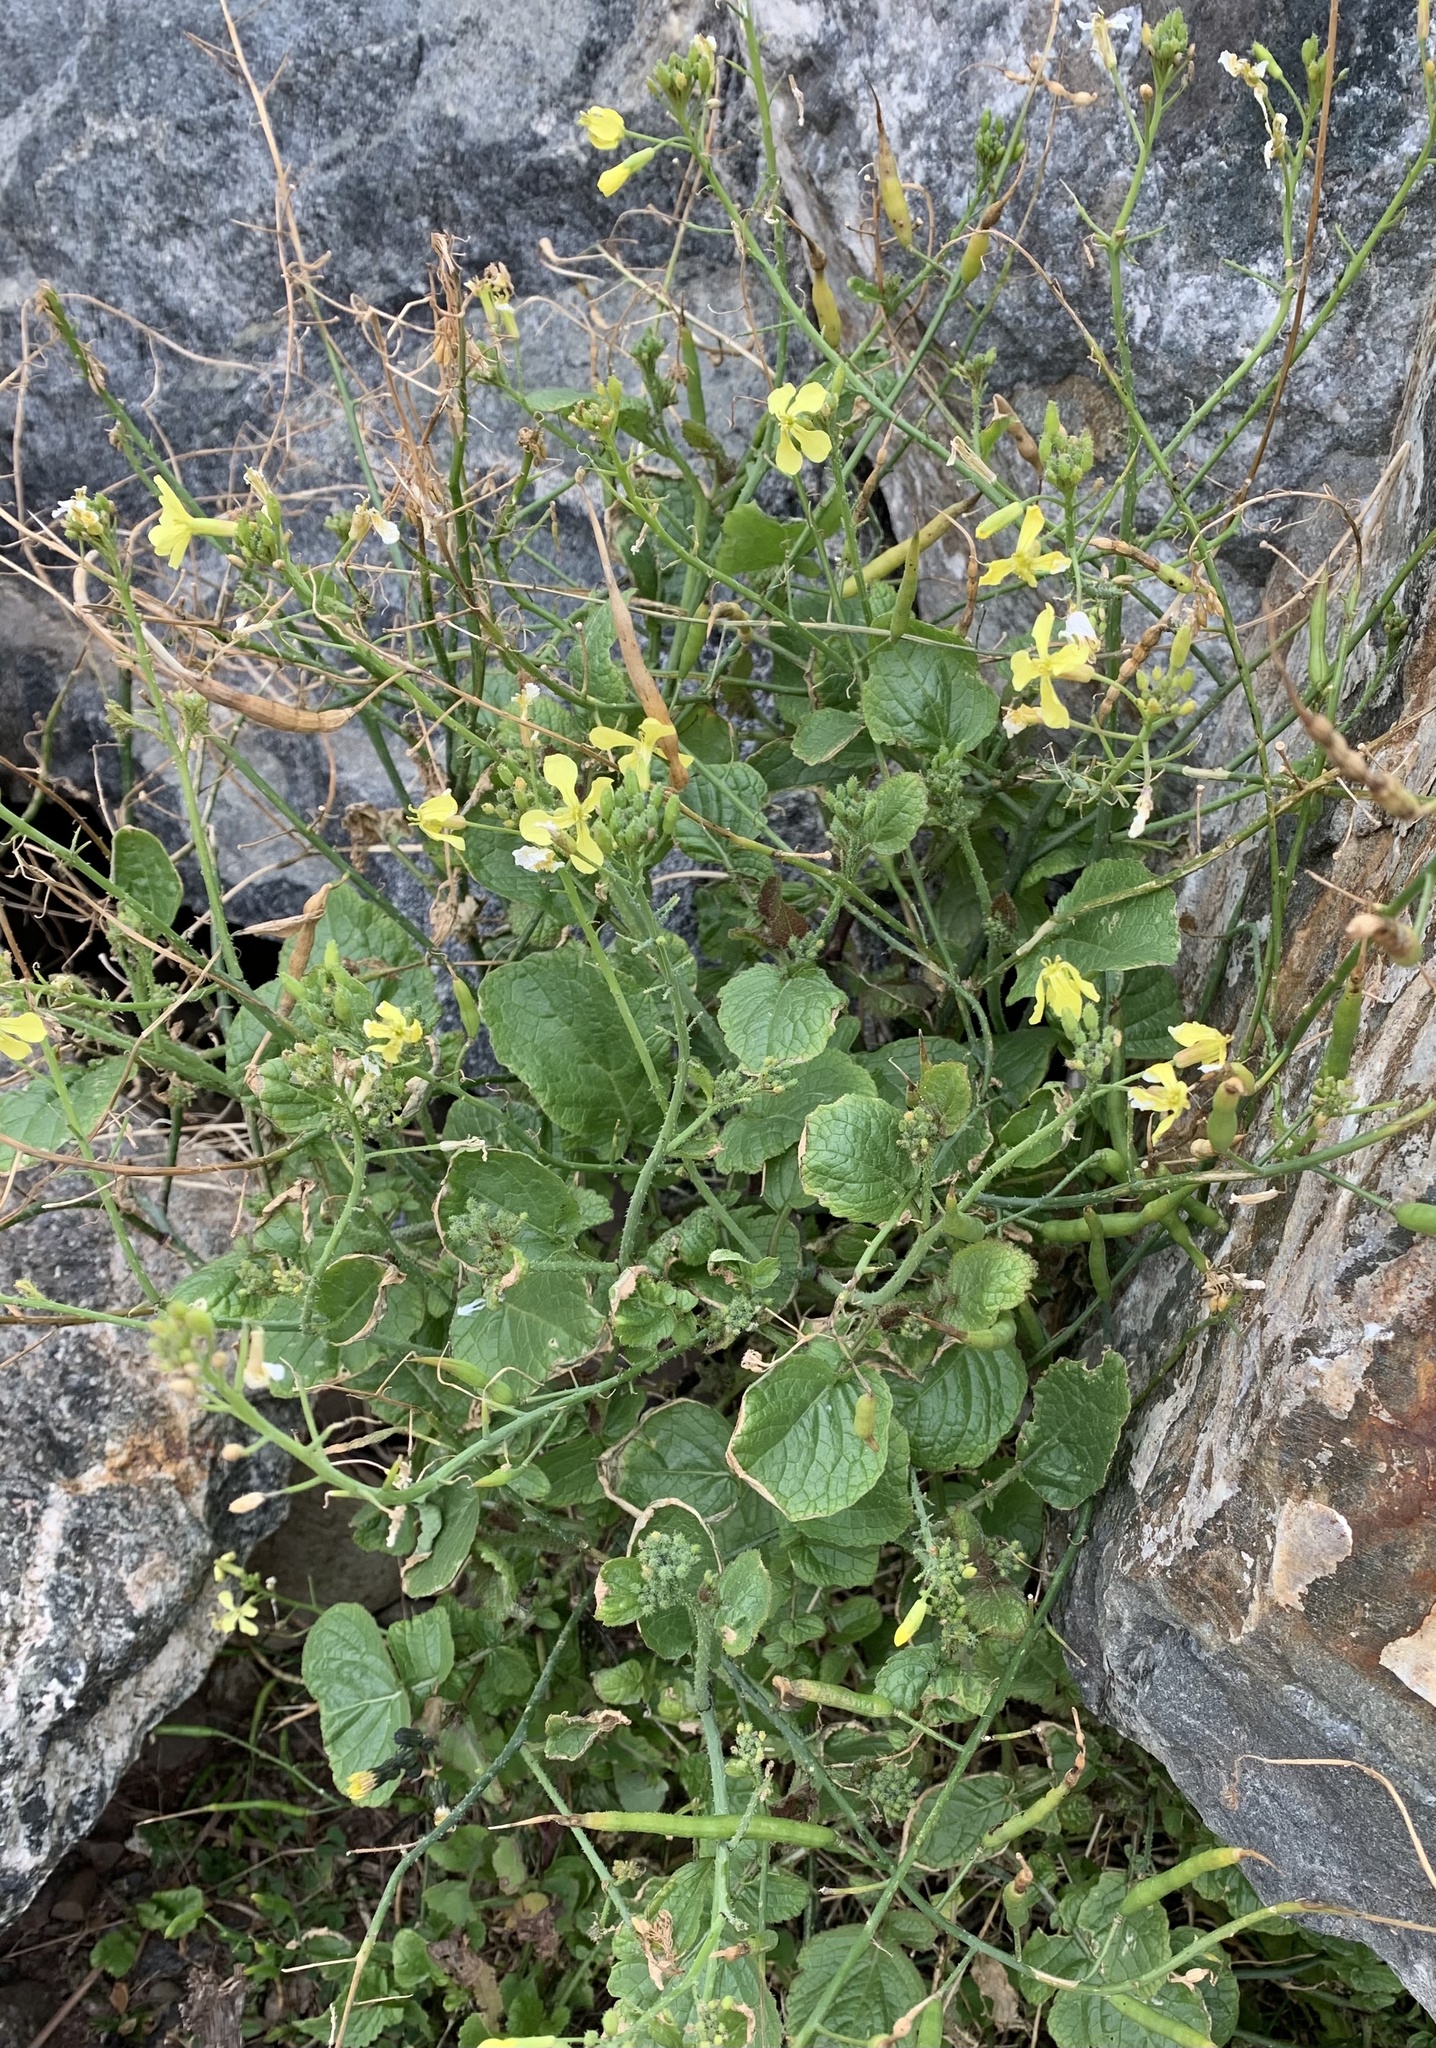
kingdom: Plantae
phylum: Tracheophyta
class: Magnoliopsida
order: Brassicales
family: Brassicaceae
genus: Raphanus
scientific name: Raphanus raphanistrum
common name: Wild radish
